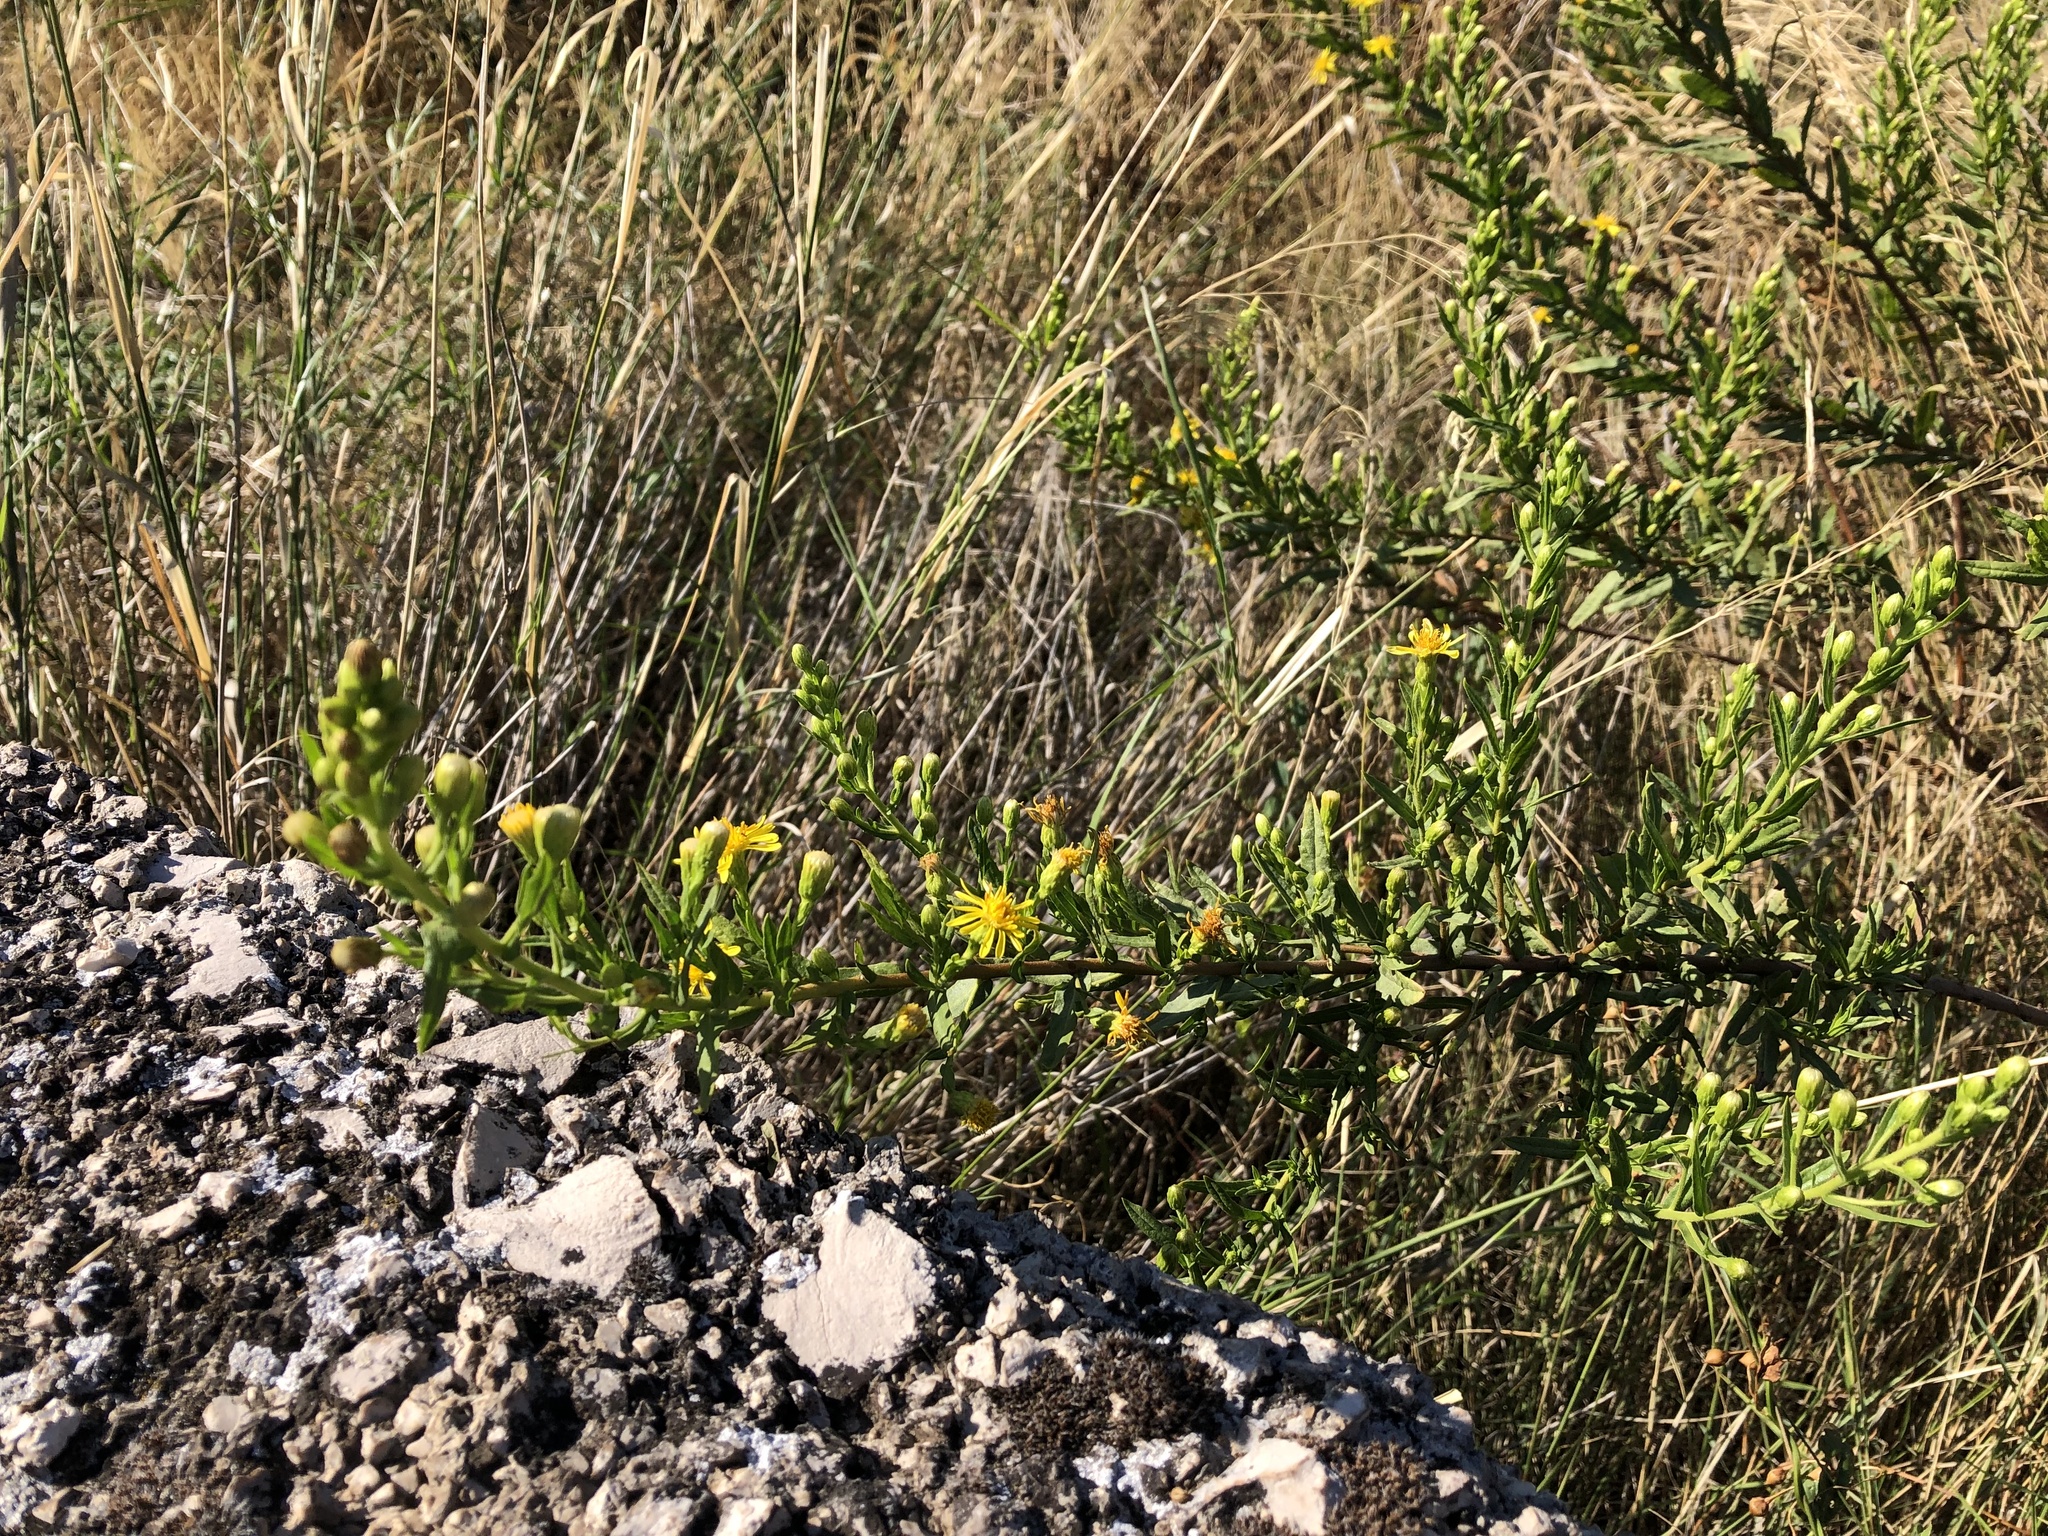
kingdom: Plantae
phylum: Tracheophyta
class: Magnoliopsida
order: Asterales
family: Asteraceae
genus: Dittrichia
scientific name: Dittrichia viscosa
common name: Woody fleabane
